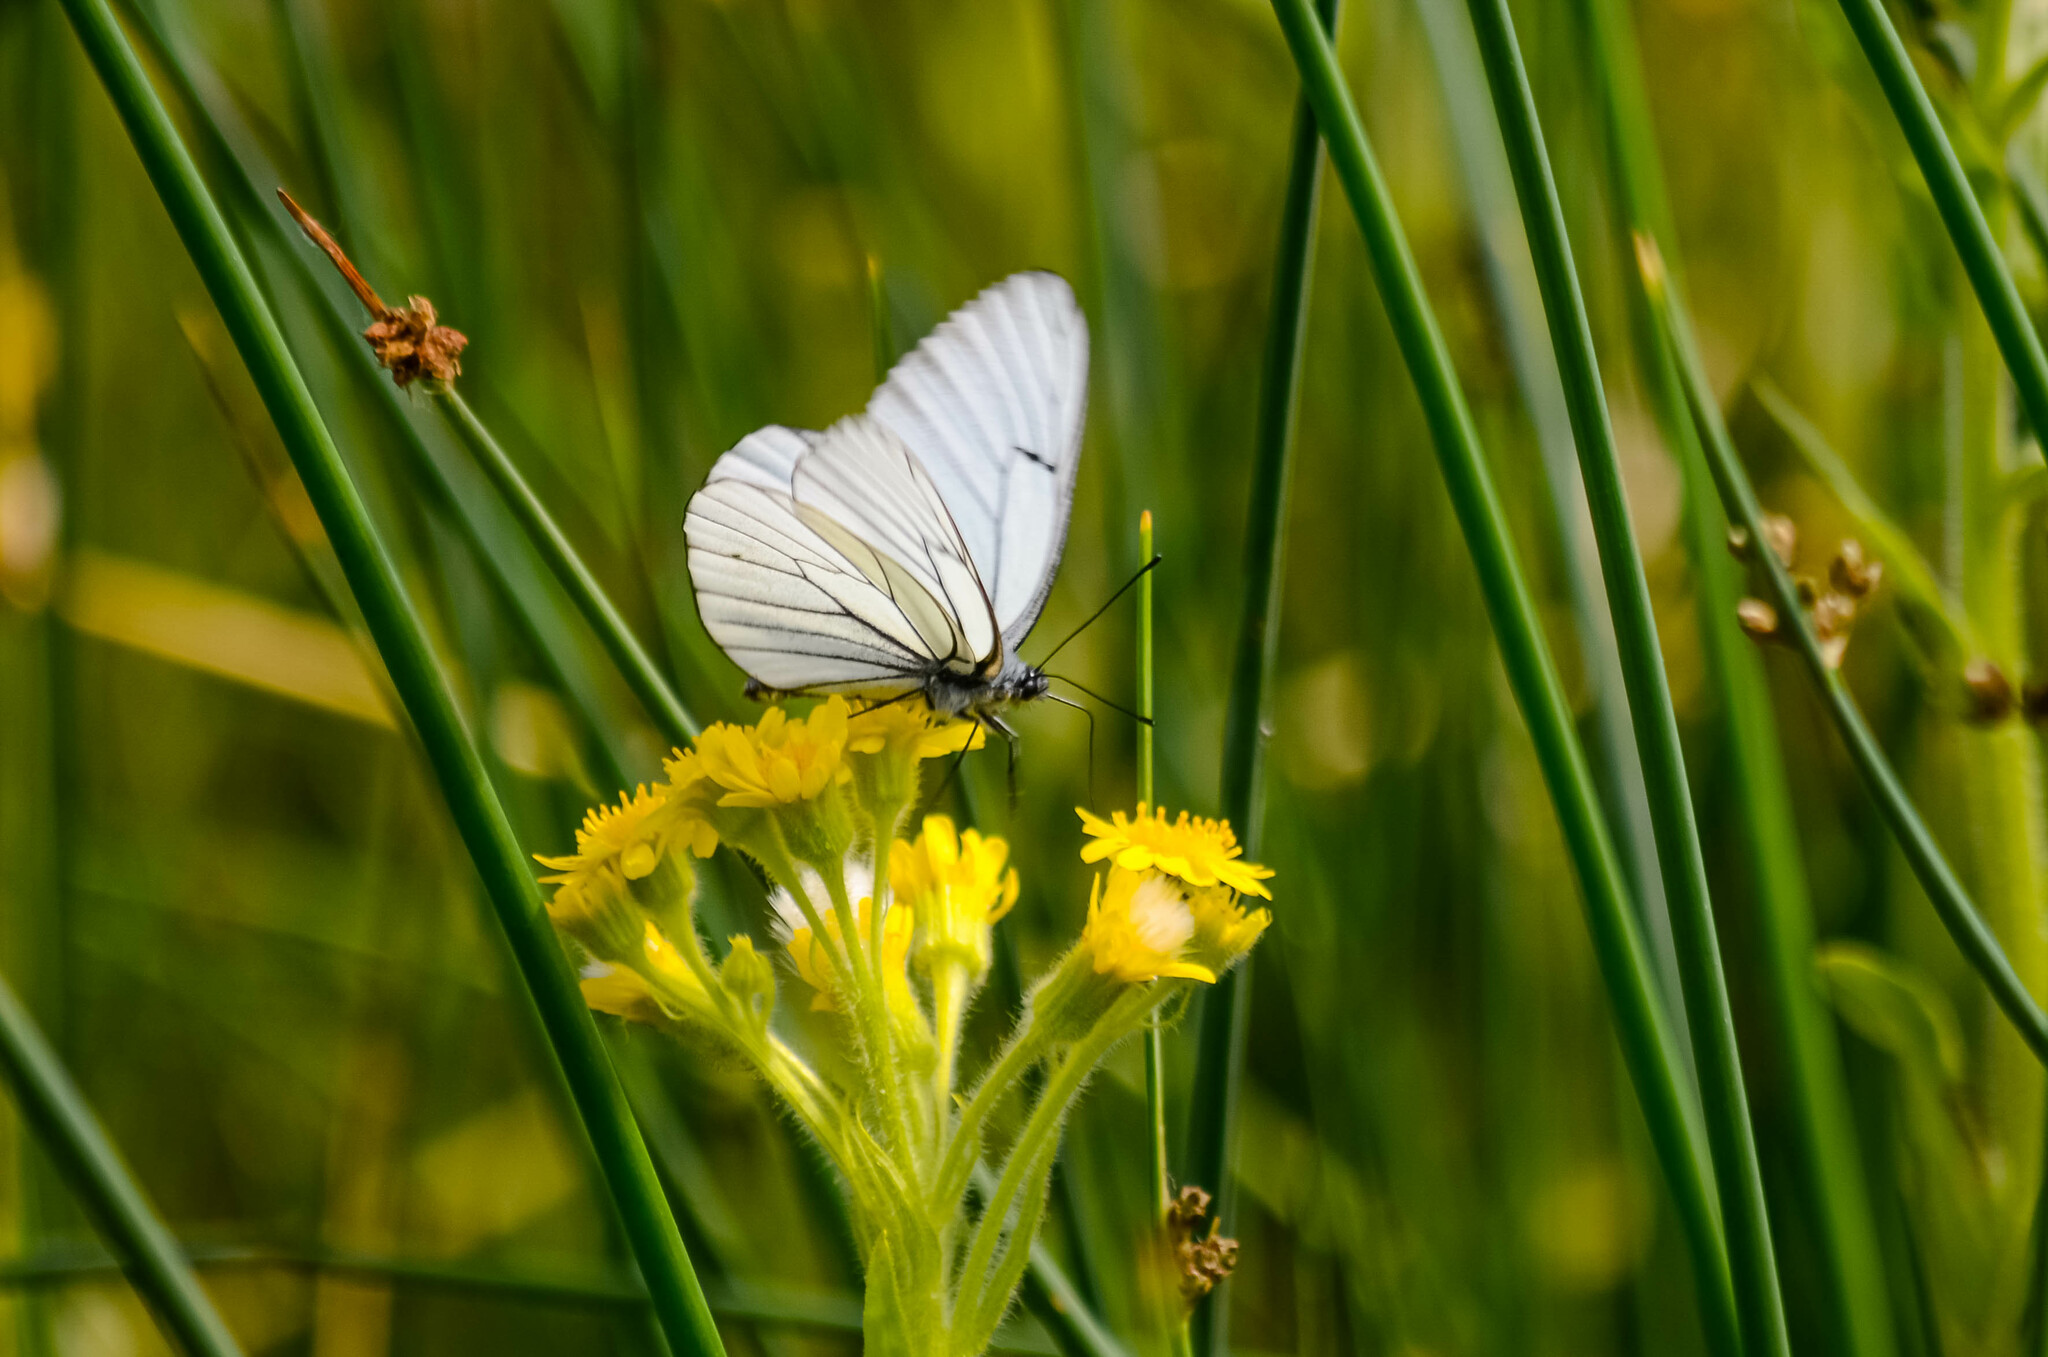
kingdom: Animalia
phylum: Arthropoda
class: Insecta
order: Lepidoptera
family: Pieridae
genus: Aporia
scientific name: Aporia crataegi
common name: Black-veined white
